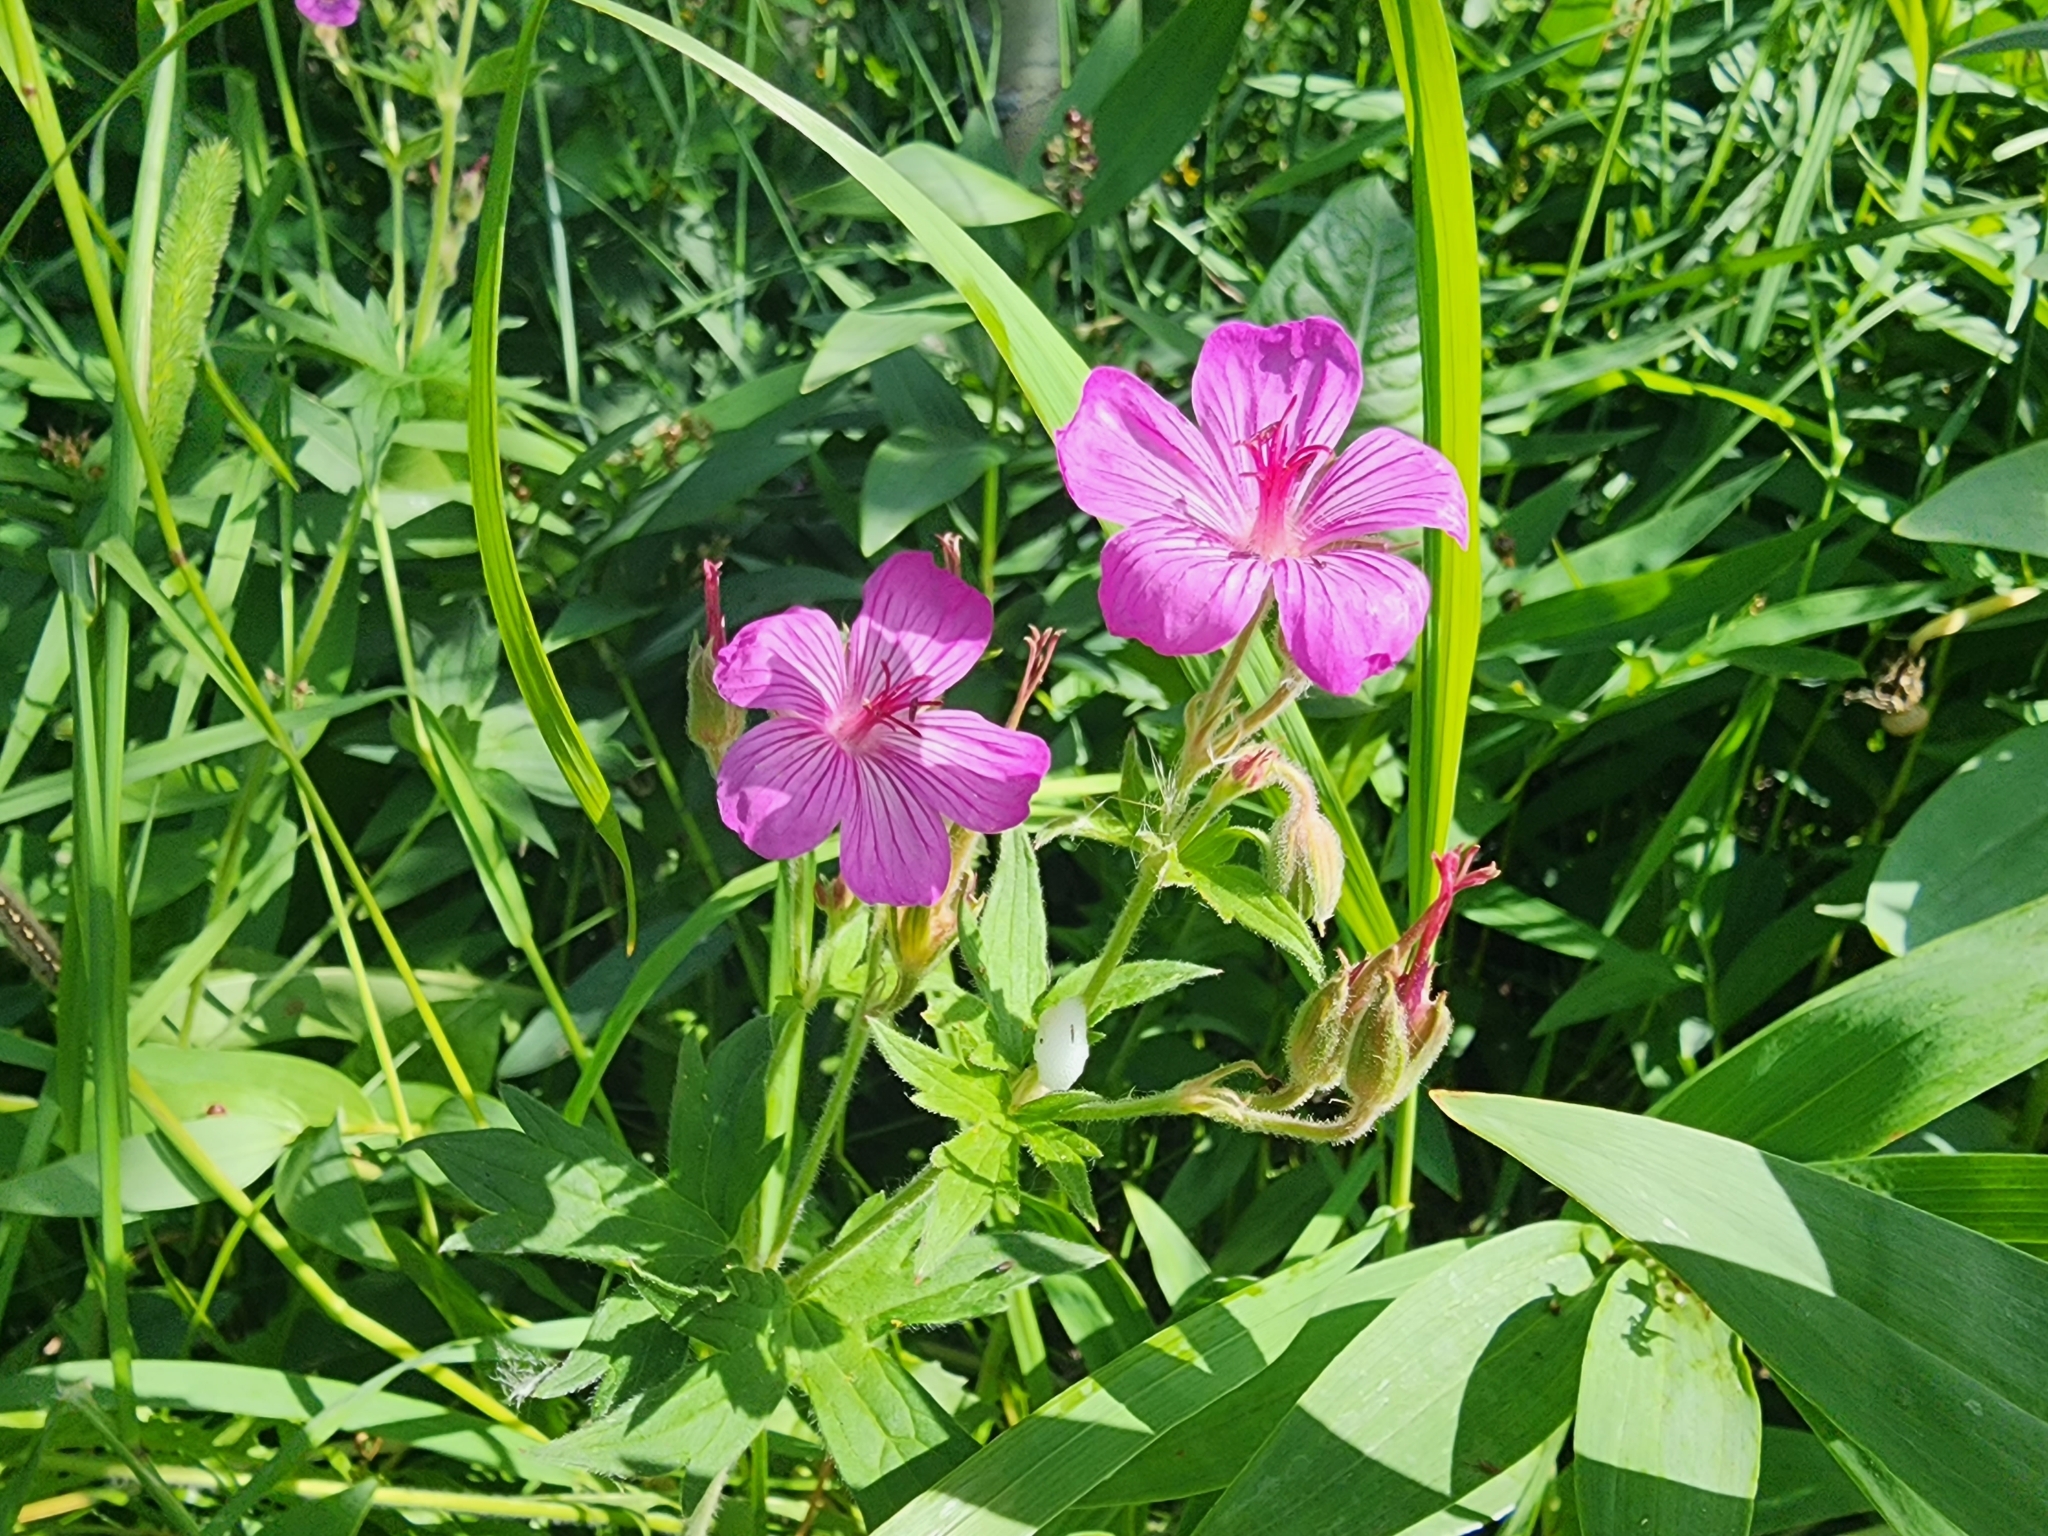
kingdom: Plantae
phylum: Tracheophyta
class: Magnoliopsida
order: Geraniales
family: Geraniaceae
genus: Geranium
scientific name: Geranium viscosissimum
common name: Purple geranium
